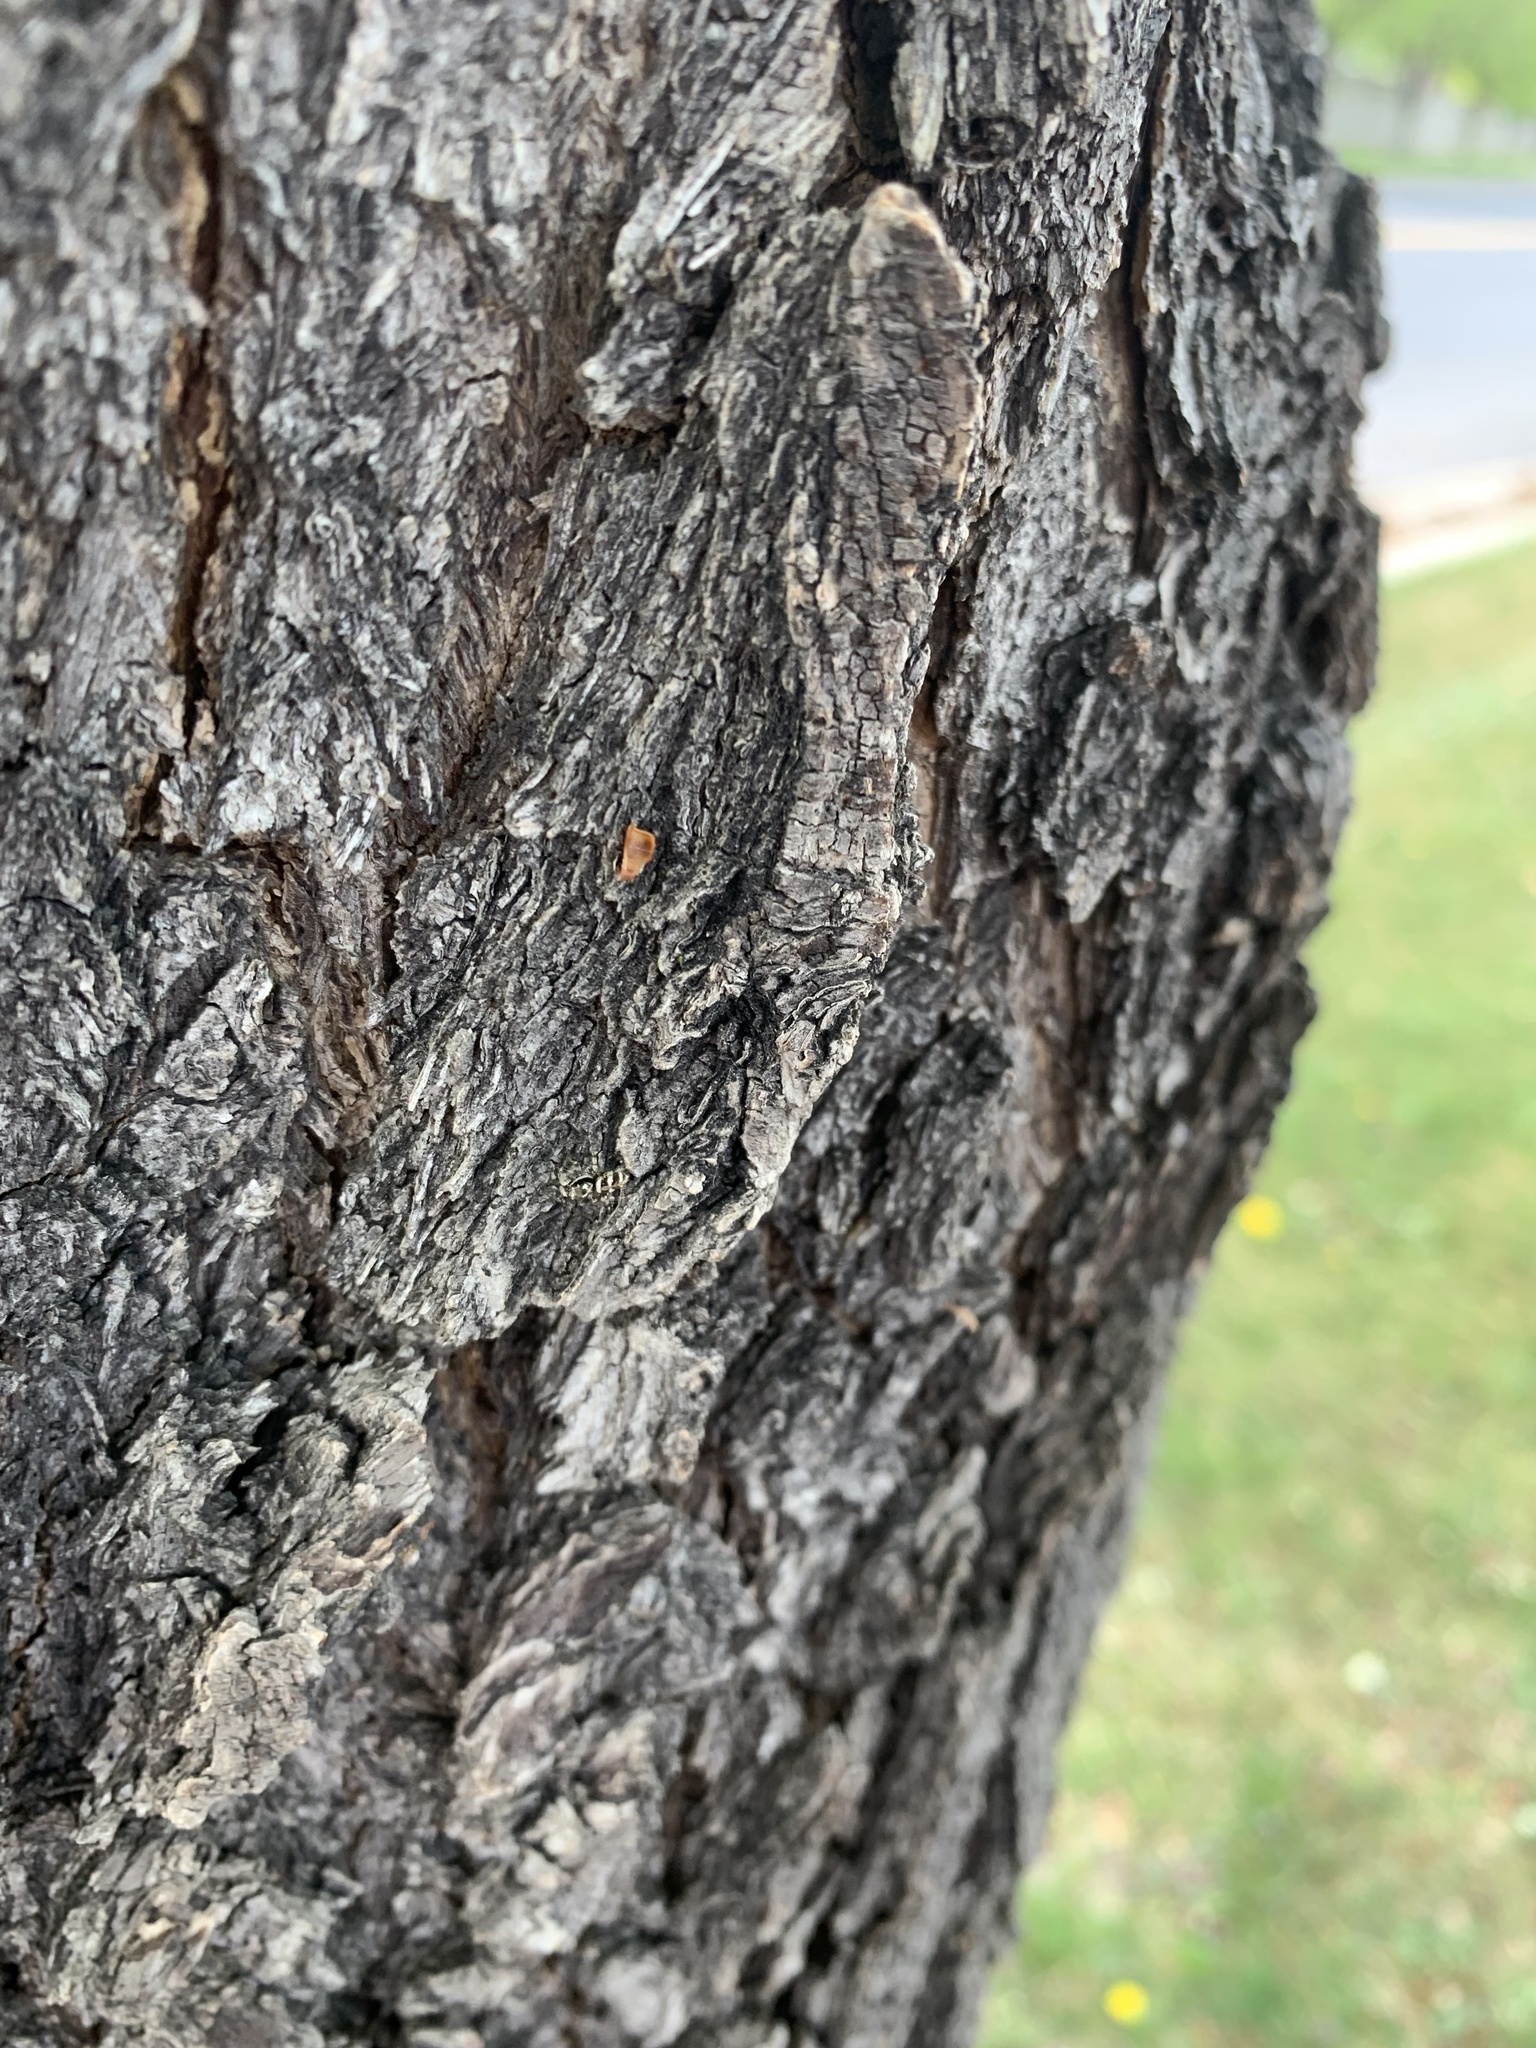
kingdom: Animalia
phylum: Arthropoda
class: Arachnida
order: Araneae
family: Salticidae
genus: Salticus
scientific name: Salticus scenicus
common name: Zebra jumper
